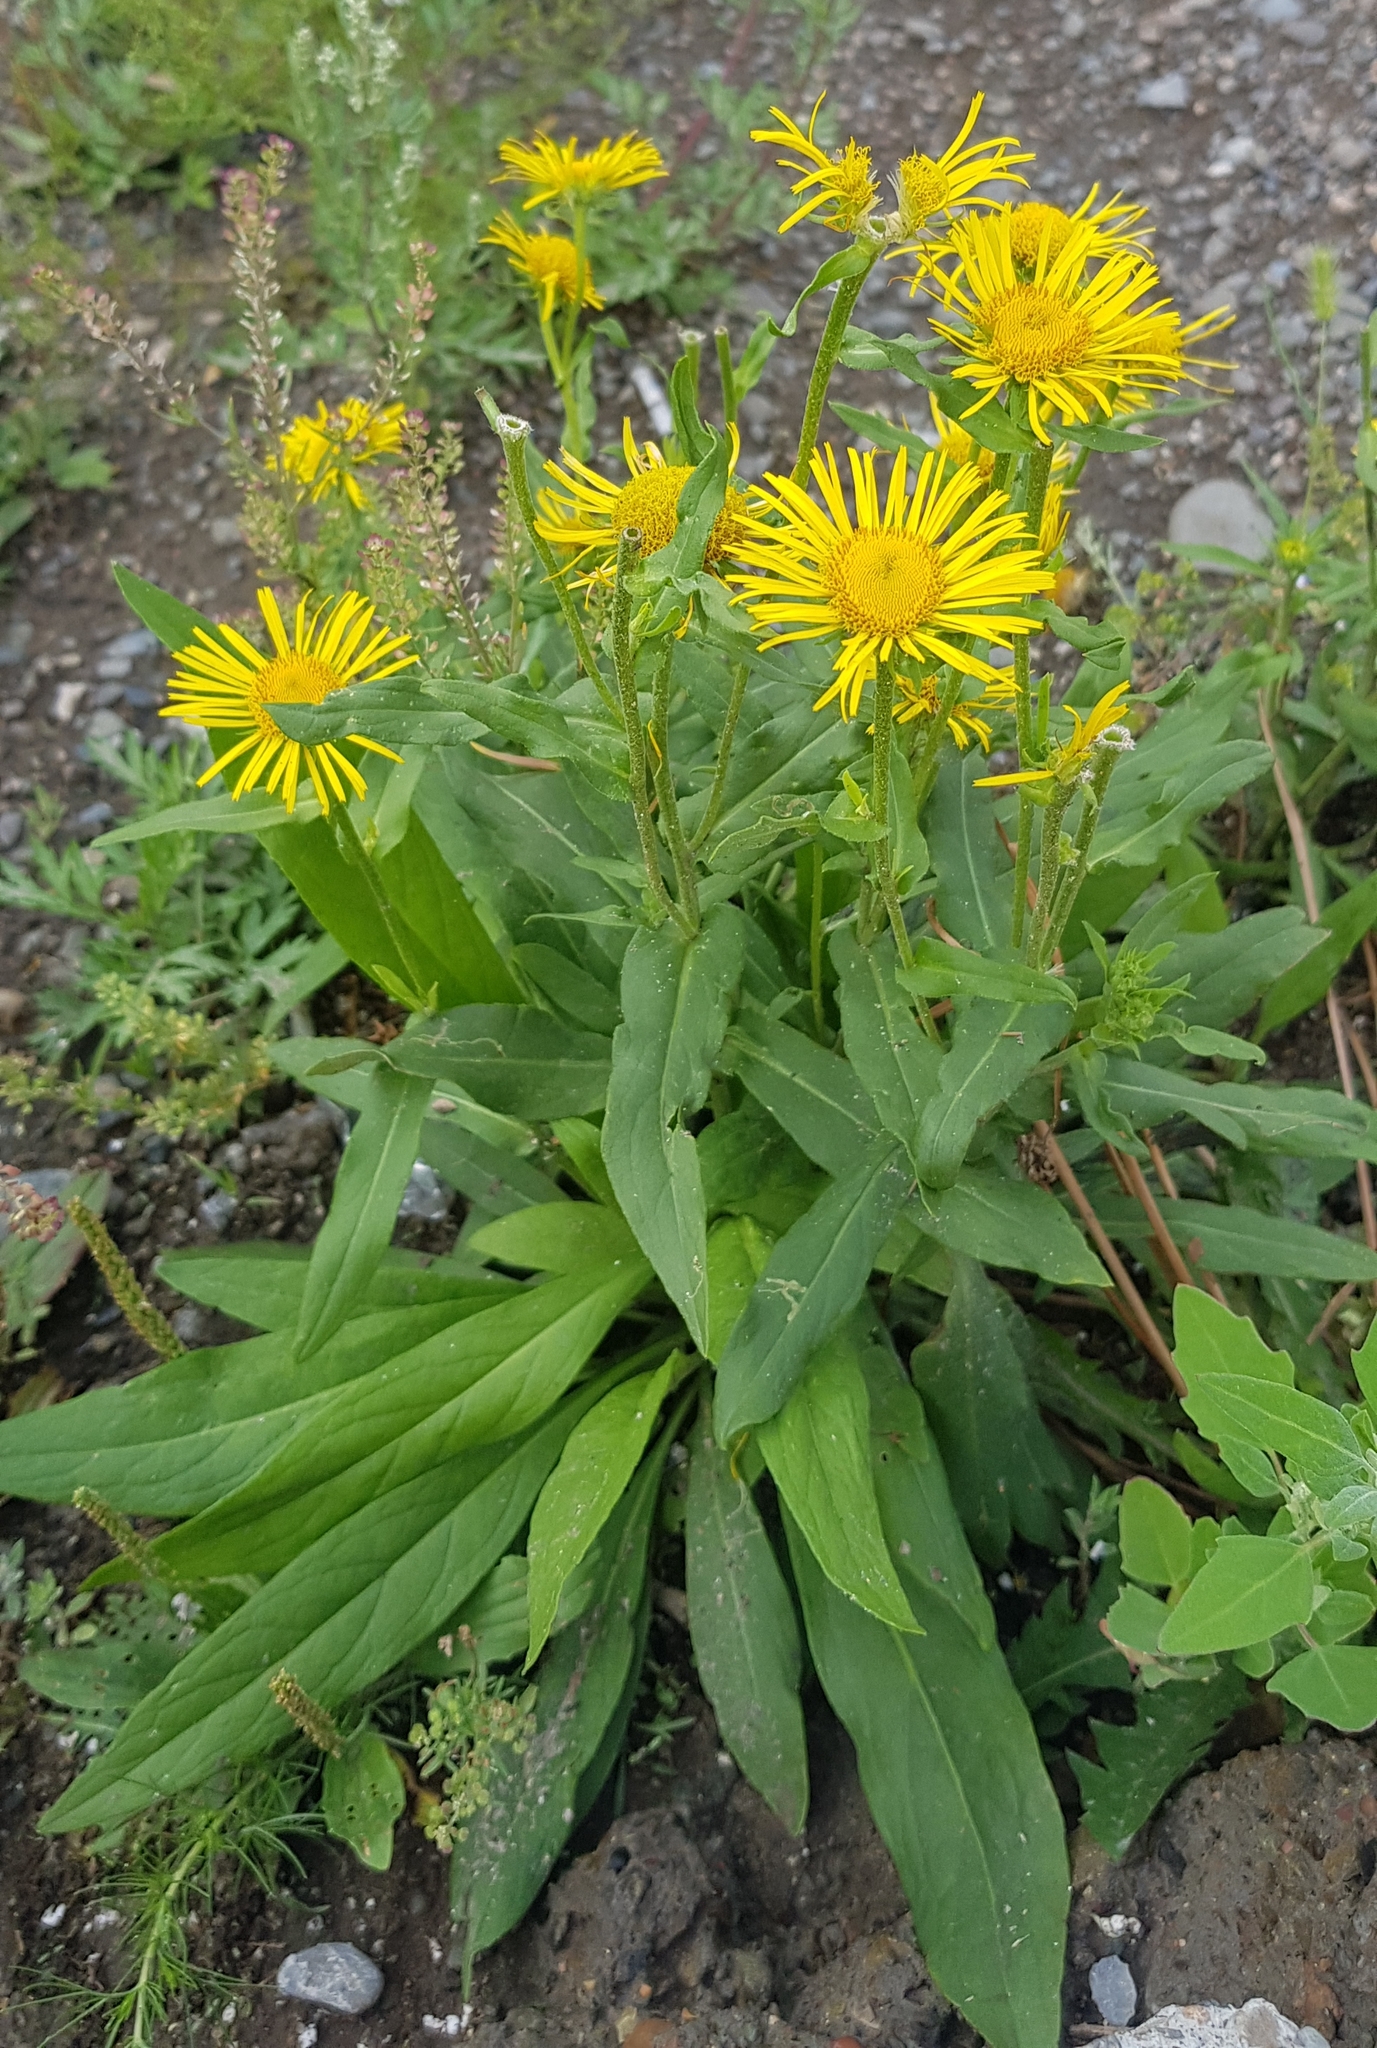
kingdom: Plantae
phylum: Tracheophyta
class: Magnoliopsida
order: Asterales
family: Asteraceae
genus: Pentanema
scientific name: Pentanema britannicum
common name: British elecampane
